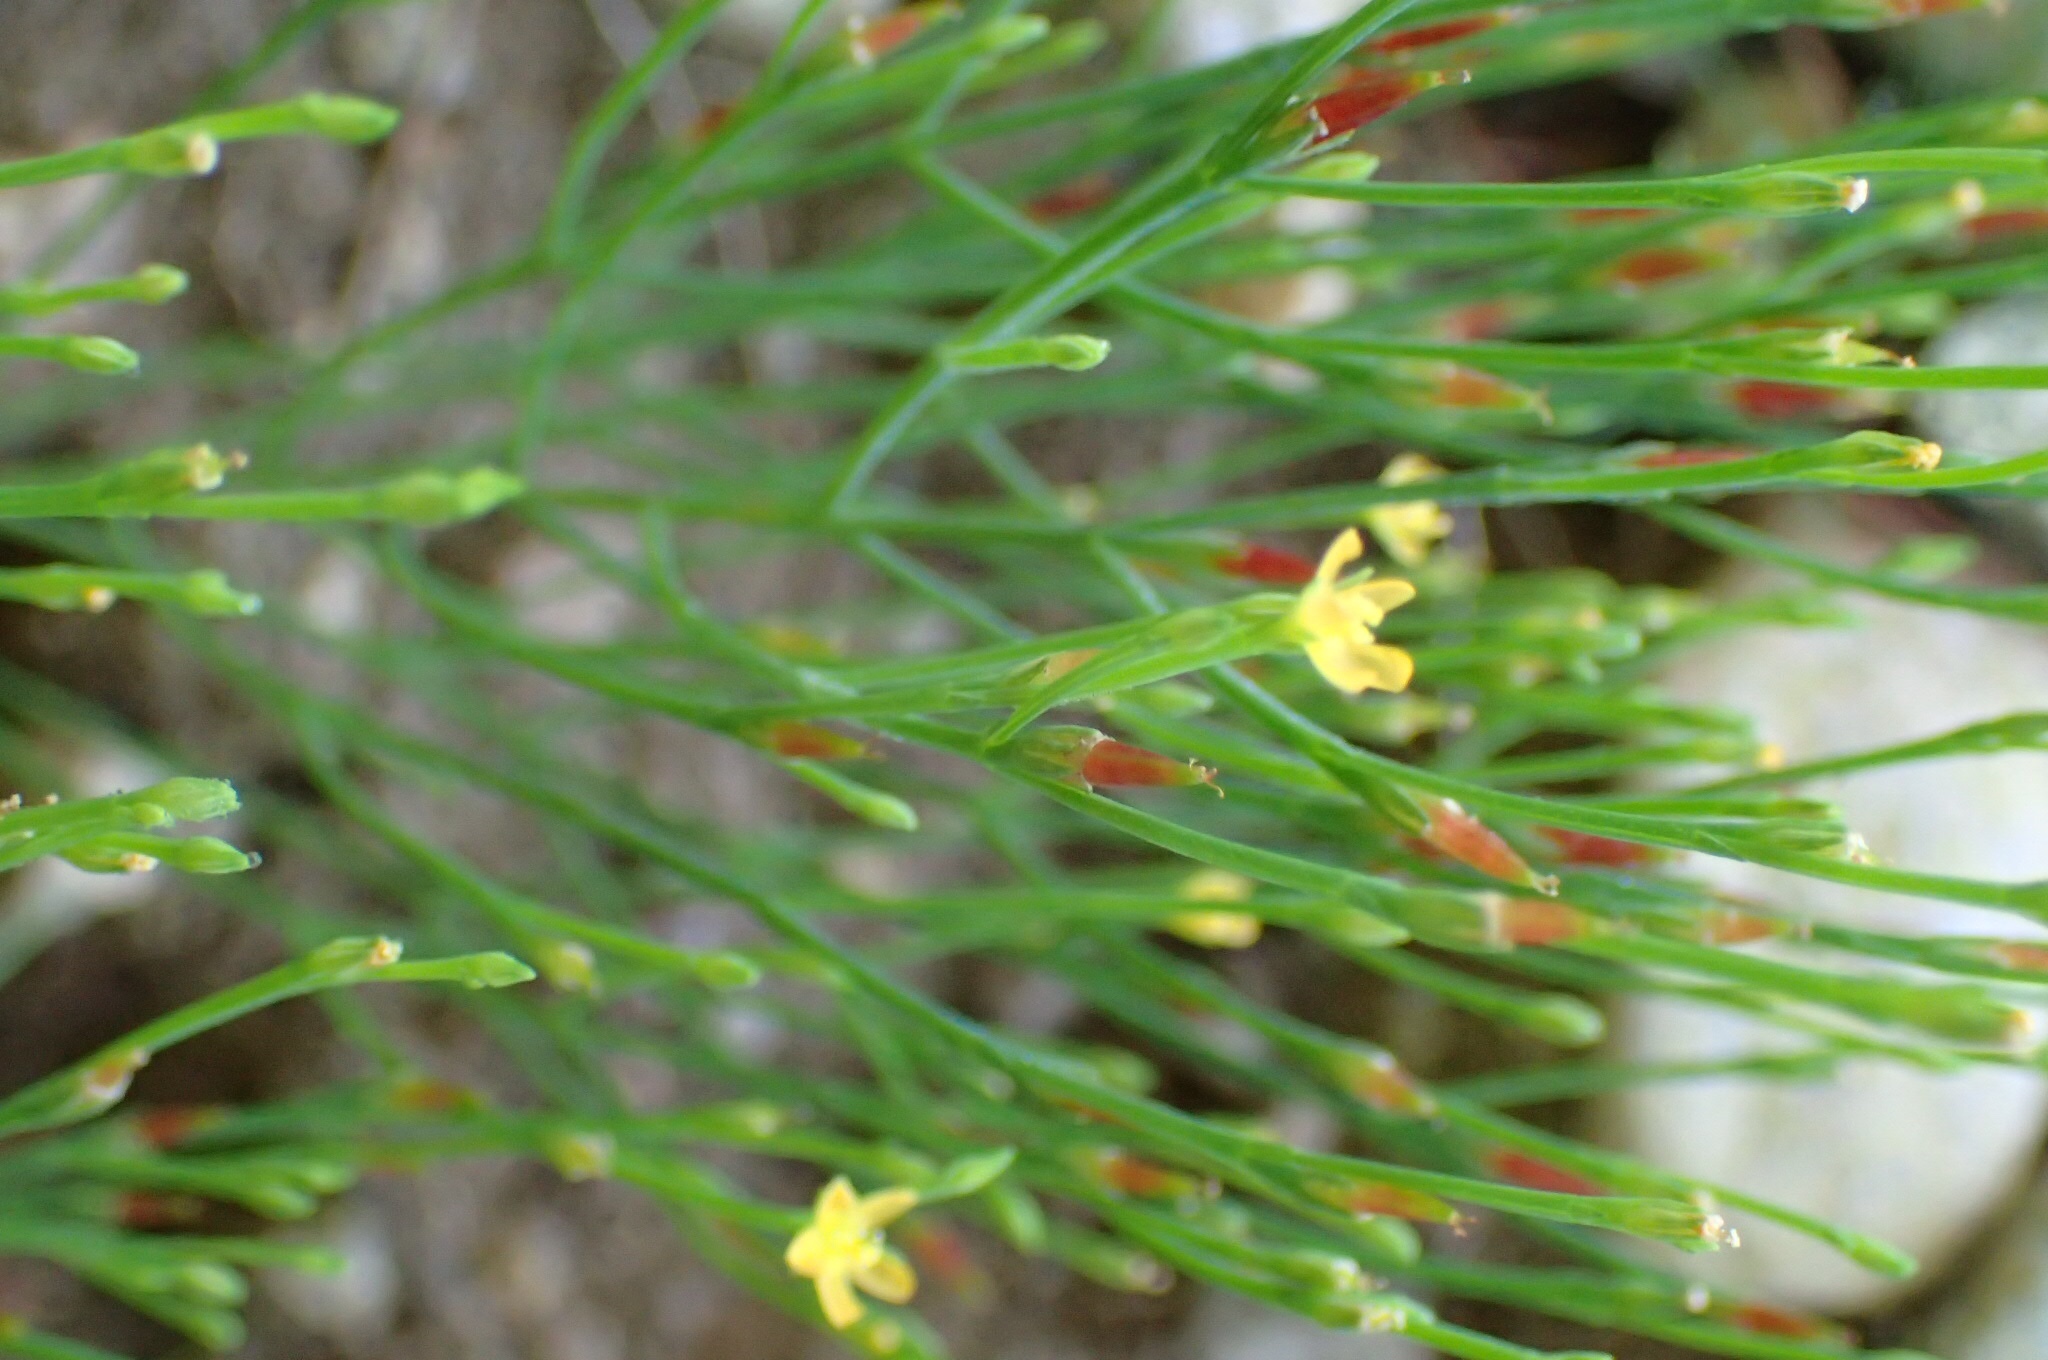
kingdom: Plantae
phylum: Tracheophyta
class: Magnoliopsida
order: Malpighiales
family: Hypericaceae
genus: Hypericum
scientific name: Hypericum gentianoides
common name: Gentian-leaved st. john's-wort
